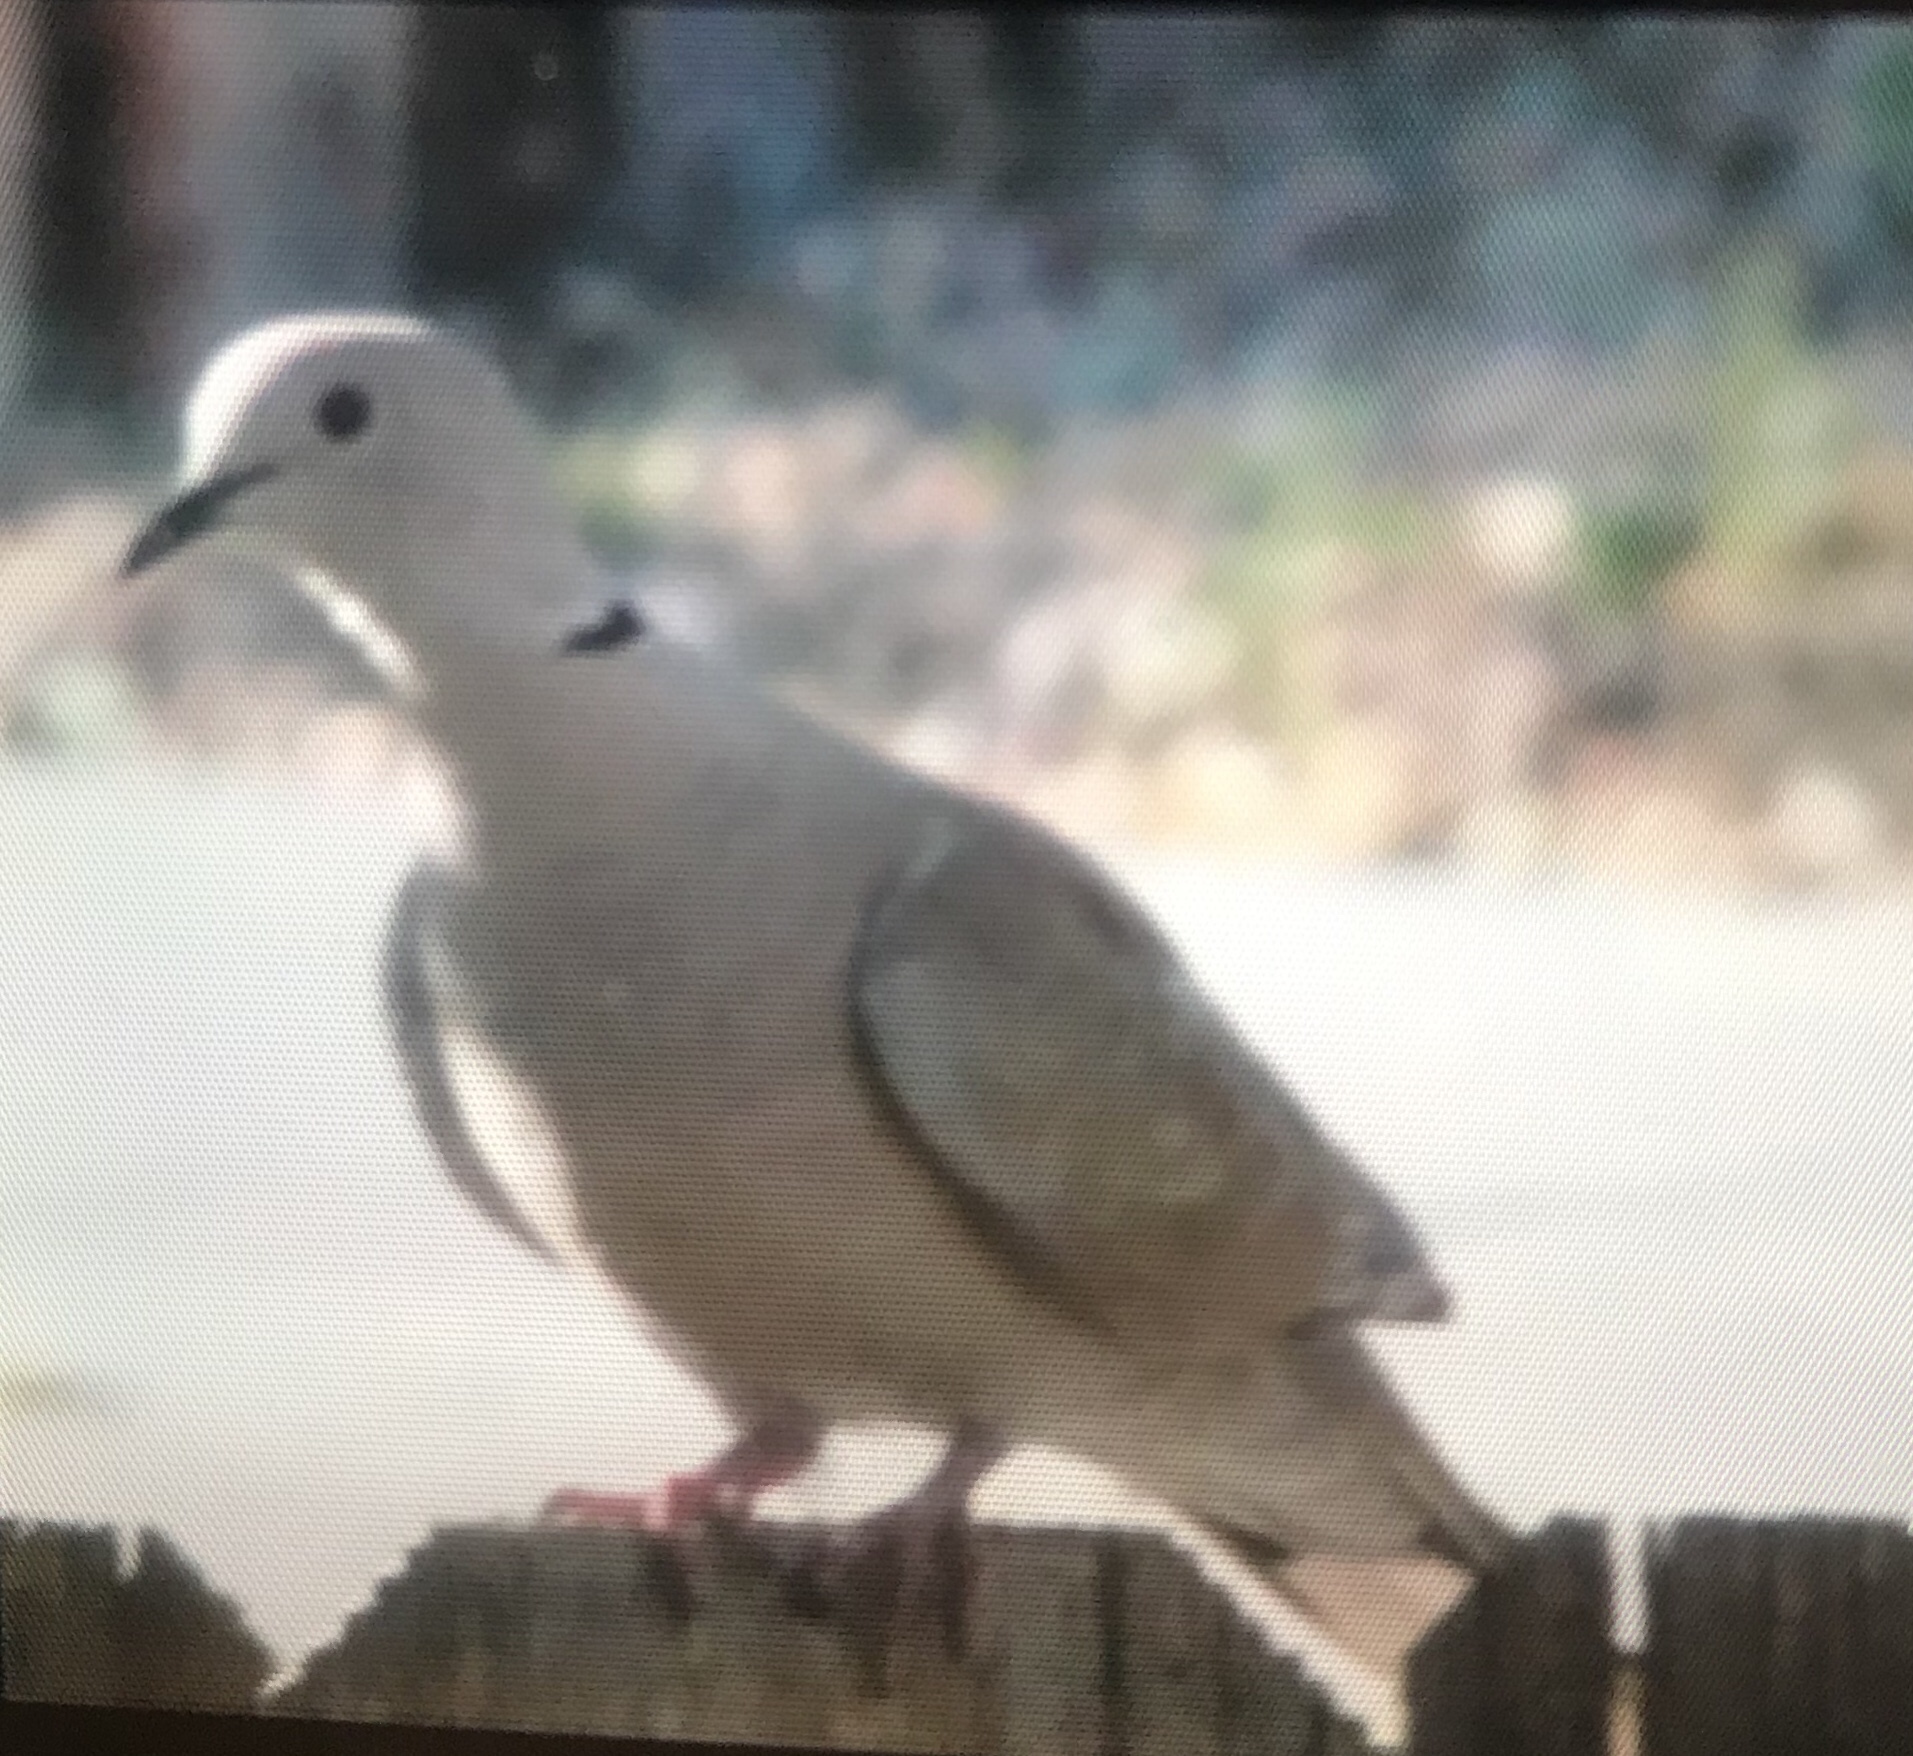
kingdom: Animalia
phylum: Chordata
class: Aves
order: Columbiformes
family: Columbidae
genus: Streptopelia
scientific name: Streptopelia decaocto
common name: Eurasian collared dove
